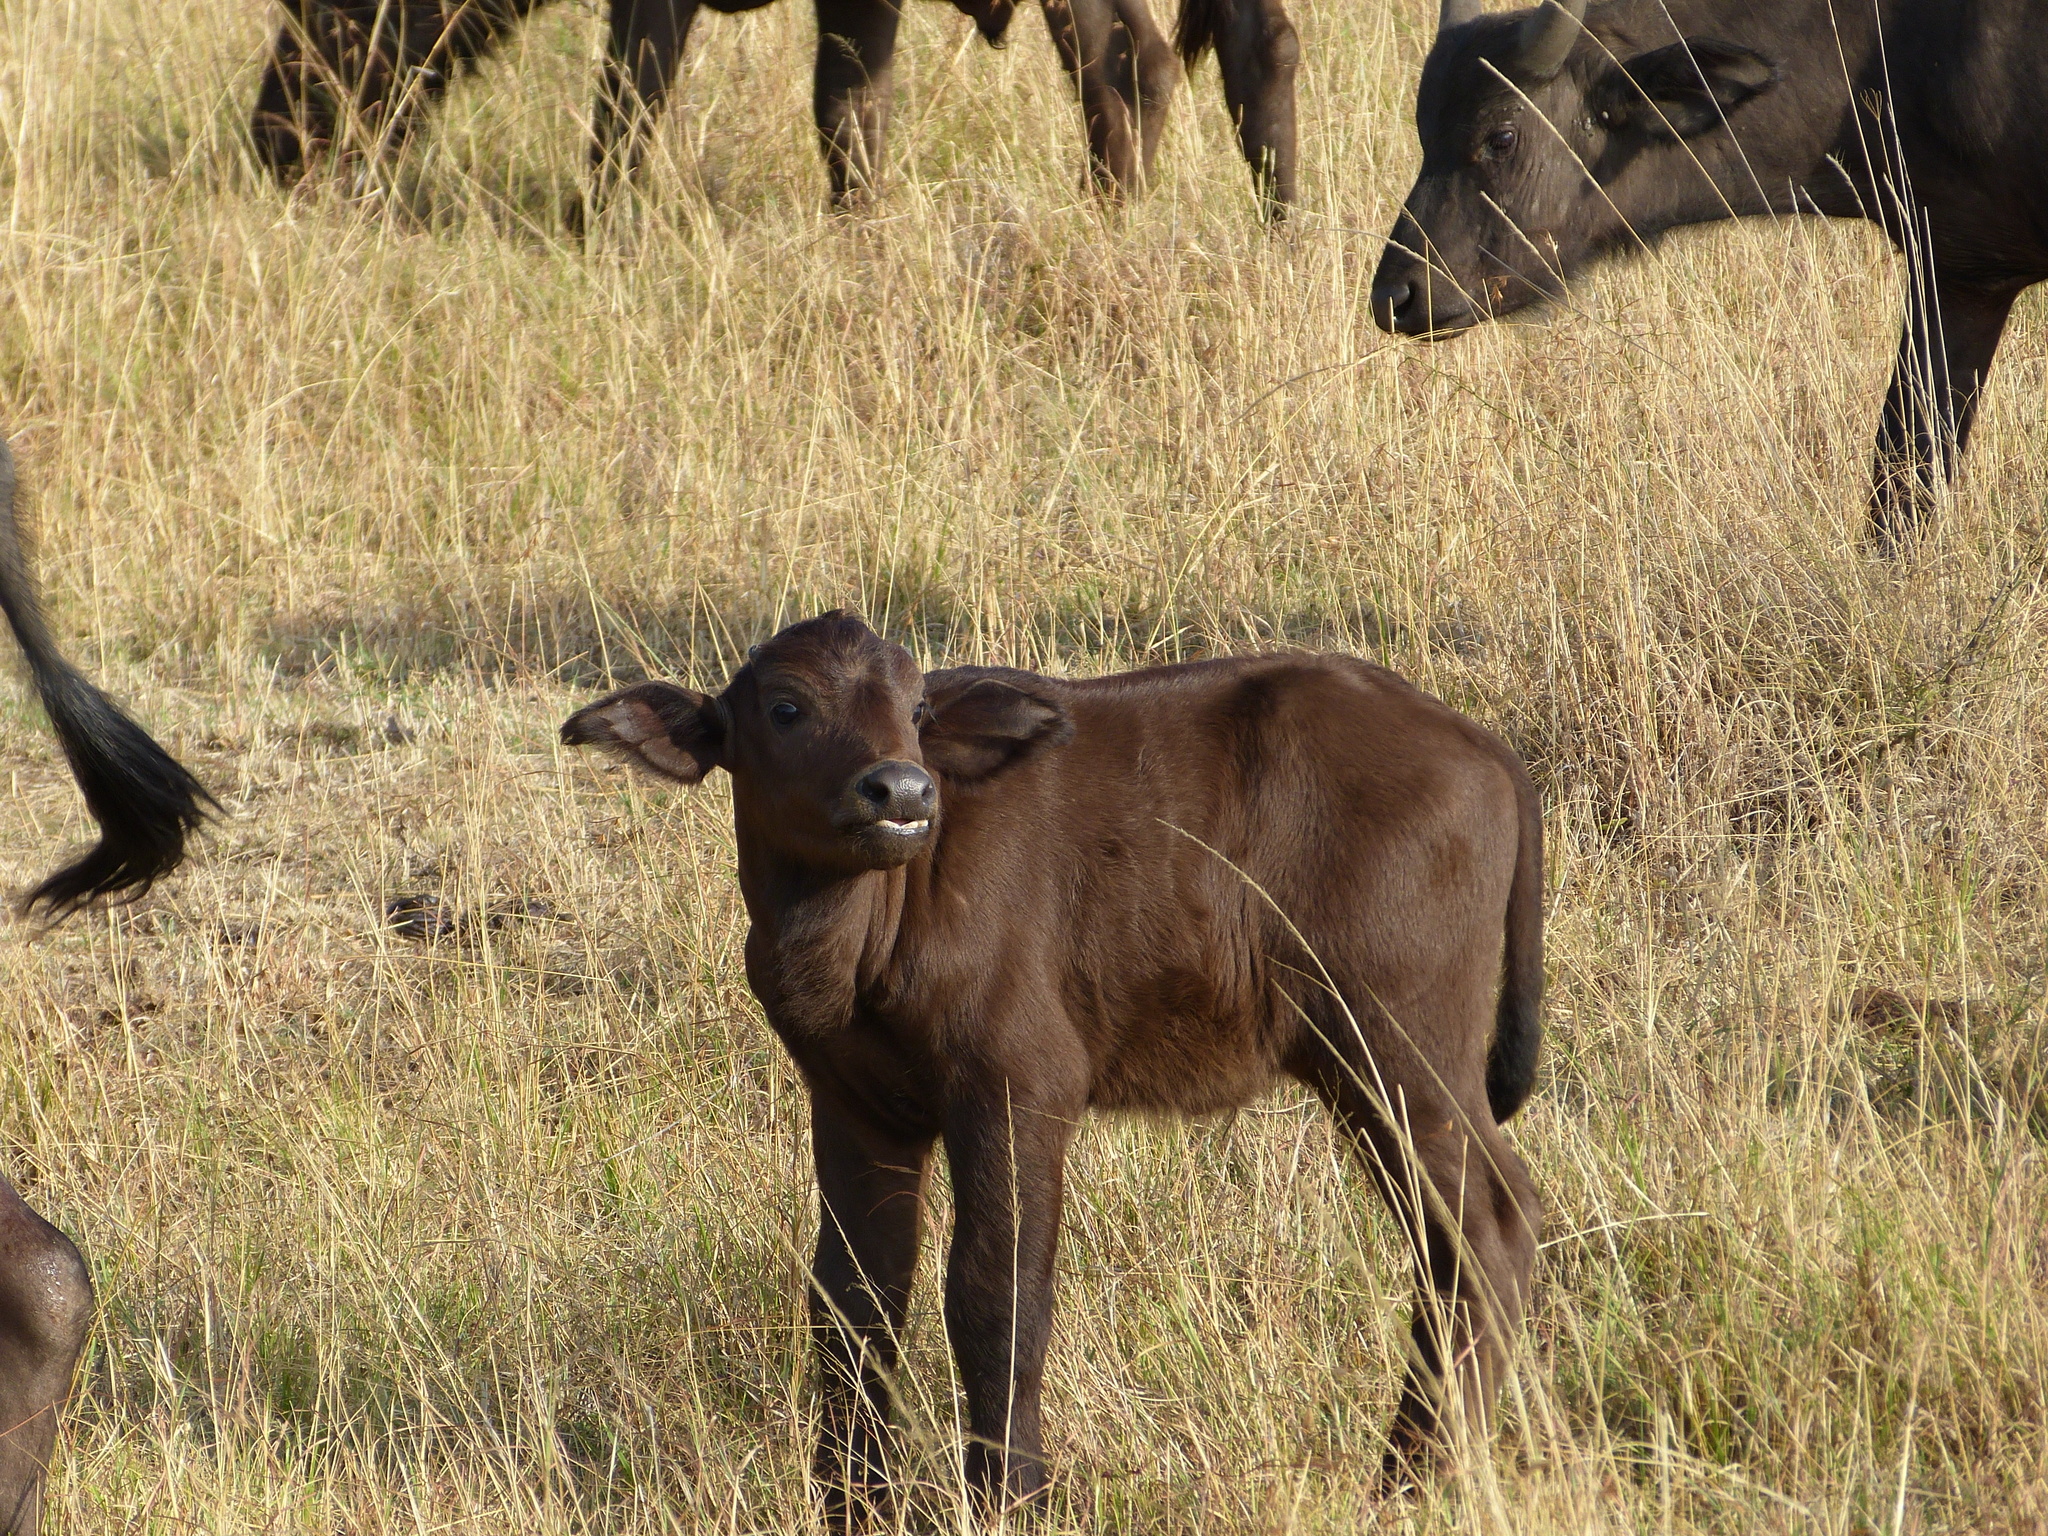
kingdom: Animalia
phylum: Chordata
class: Mammalia
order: Artiodactyla
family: Bovidae
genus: Syncerus
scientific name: Syncerus caffer
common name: African buffalo
